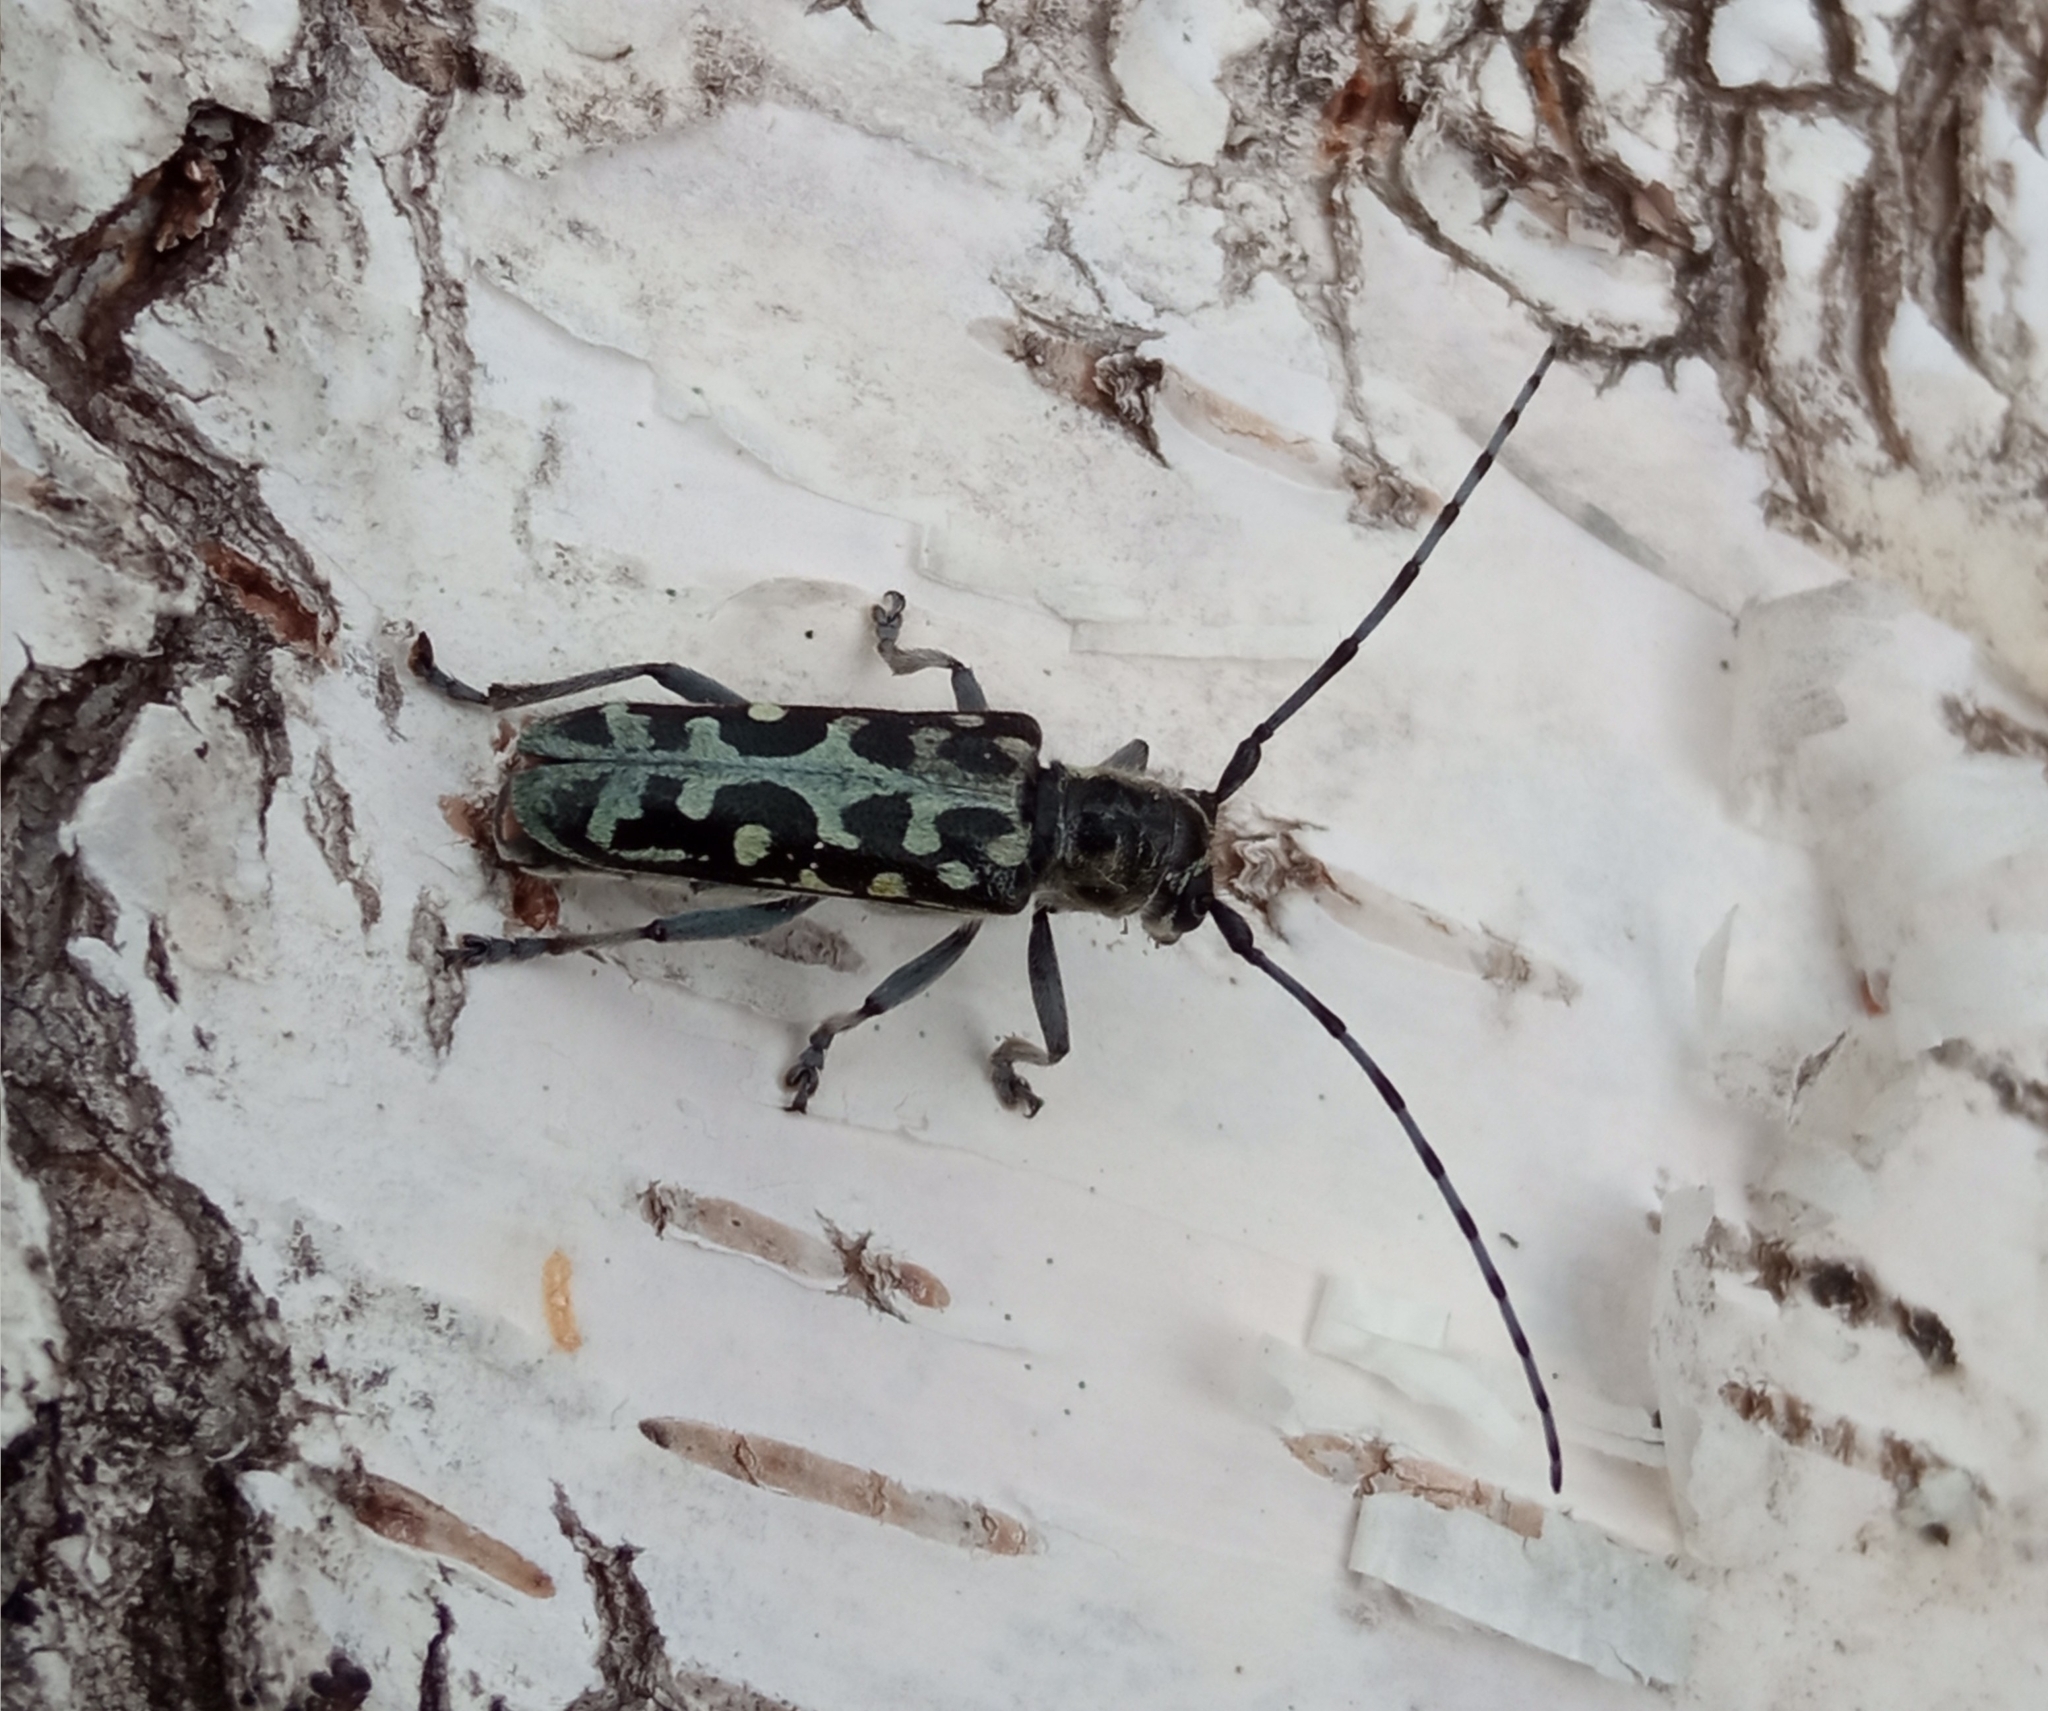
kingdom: Animalia
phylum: Arthropoda
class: Insecta
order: Coleoptera
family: Cerambycidae
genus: Saperda
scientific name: Saperda scalaris
